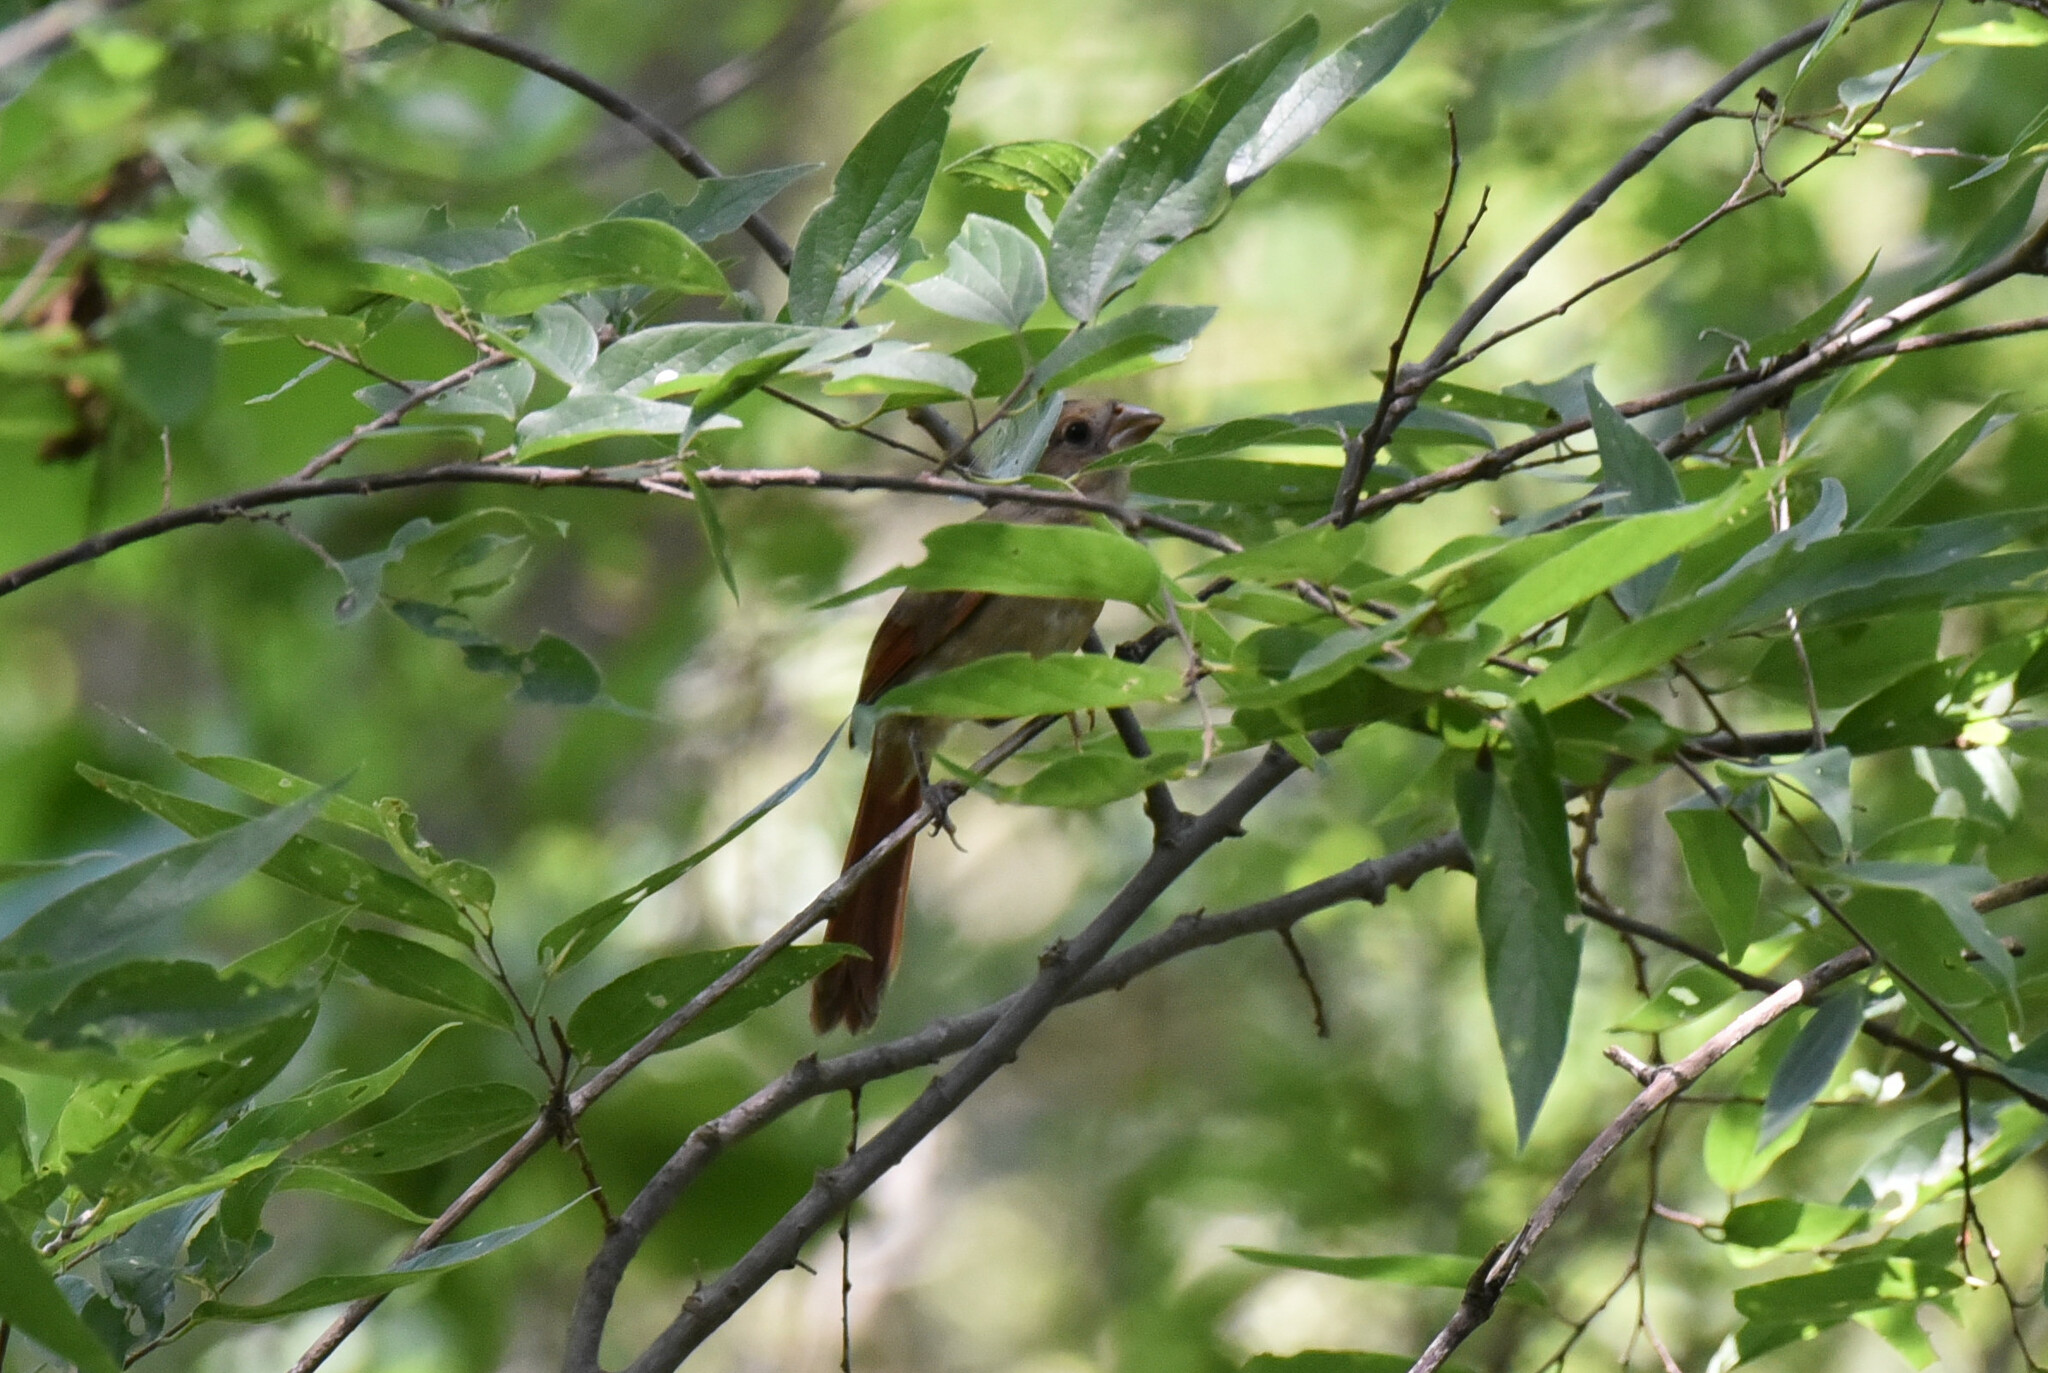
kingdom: Animalia
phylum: Chordata
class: Aves
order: Passeriformes
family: Cardinalidae
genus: Cardinalis
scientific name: Cardinalis cardinalis
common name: Northern cardinal
